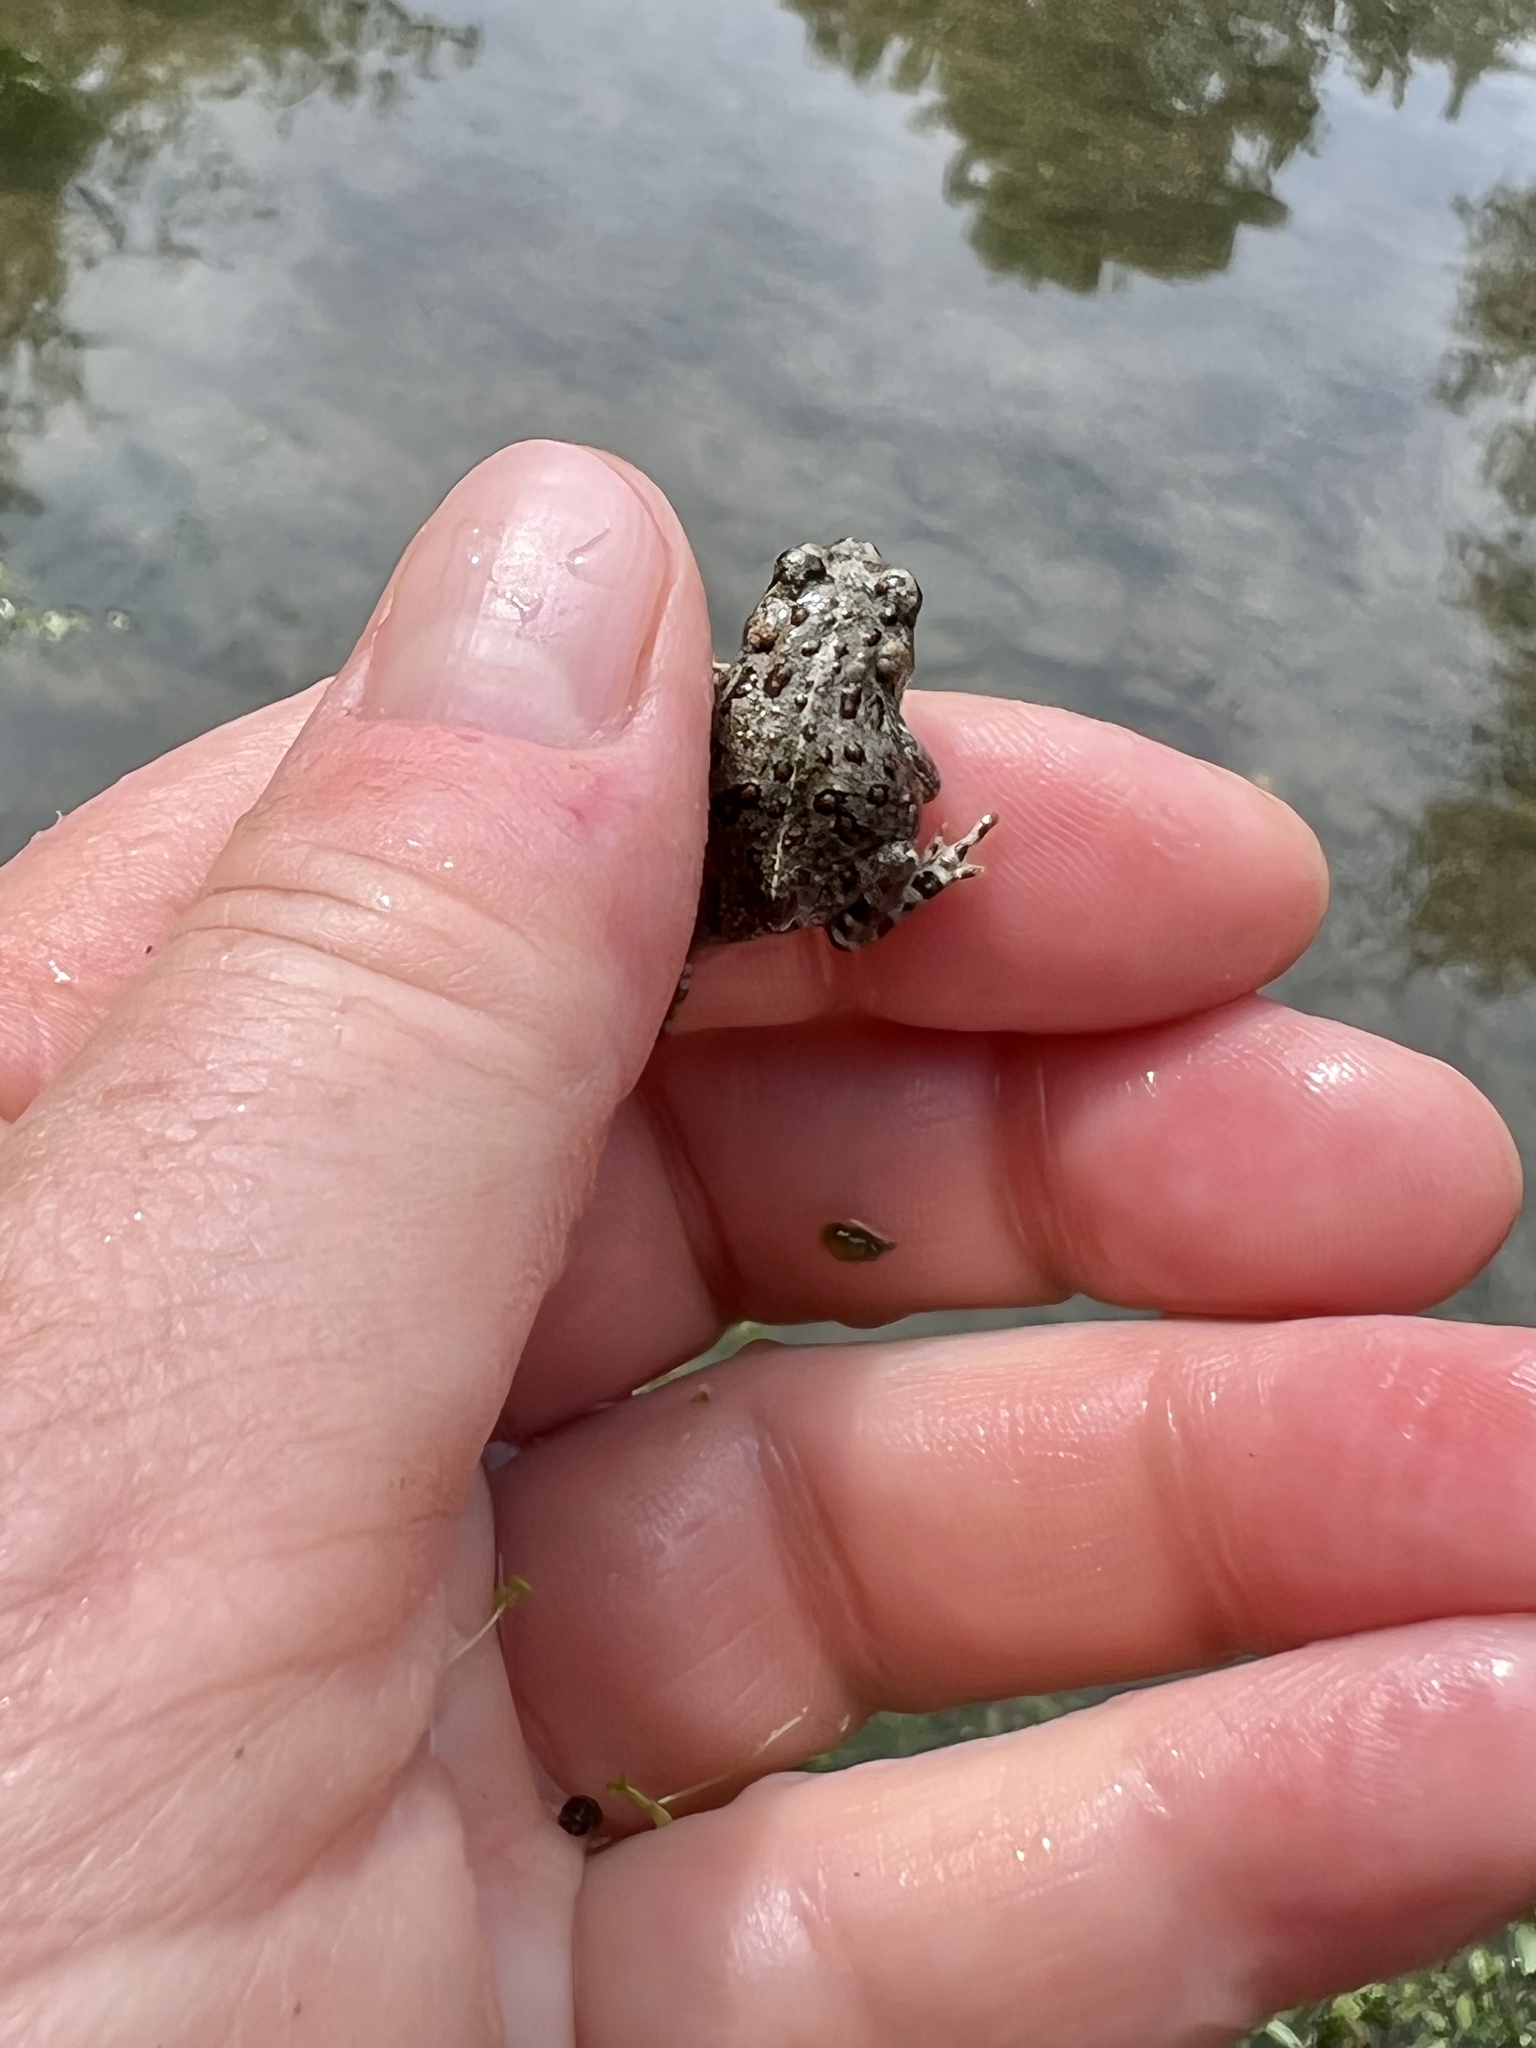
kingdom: Animalia
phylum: Chordata
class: Amphibia
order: Anura
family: Bufonidae
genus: Anaxyrus
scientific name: Anaxyrus boreas
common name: Western toad
